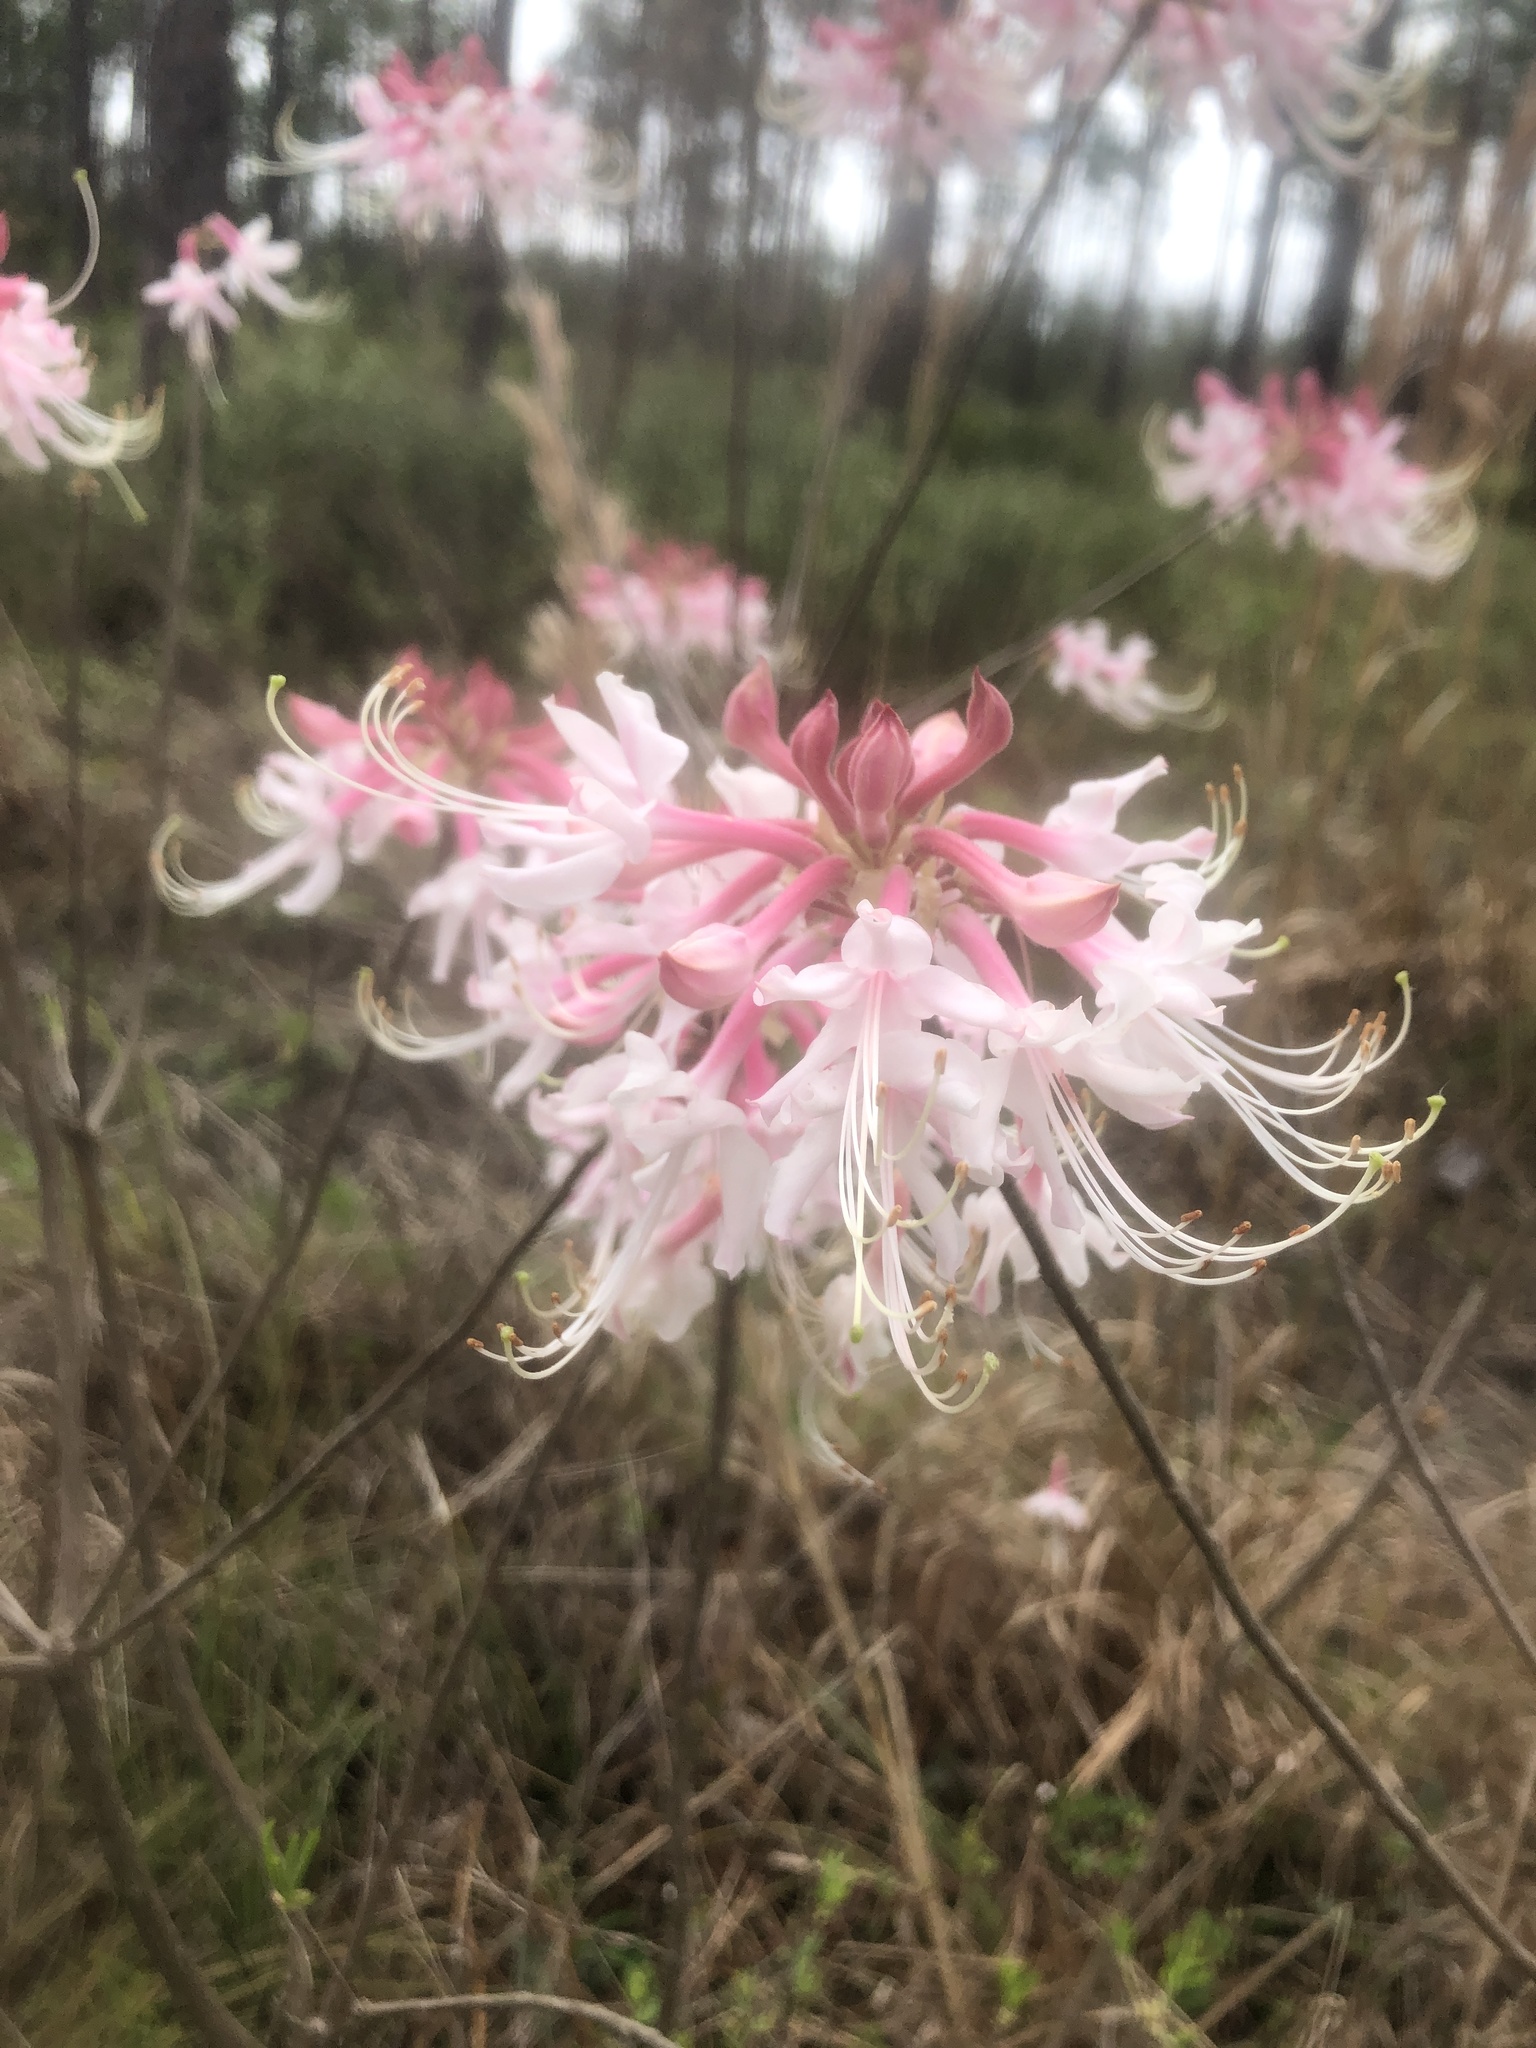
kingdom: Plantae
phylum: Tracheophyta
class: Magnoliopsida
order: Ericales
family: Ericaceae
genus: Rhododendron
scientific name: Rhododendron canescens
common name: Mountain azalea
